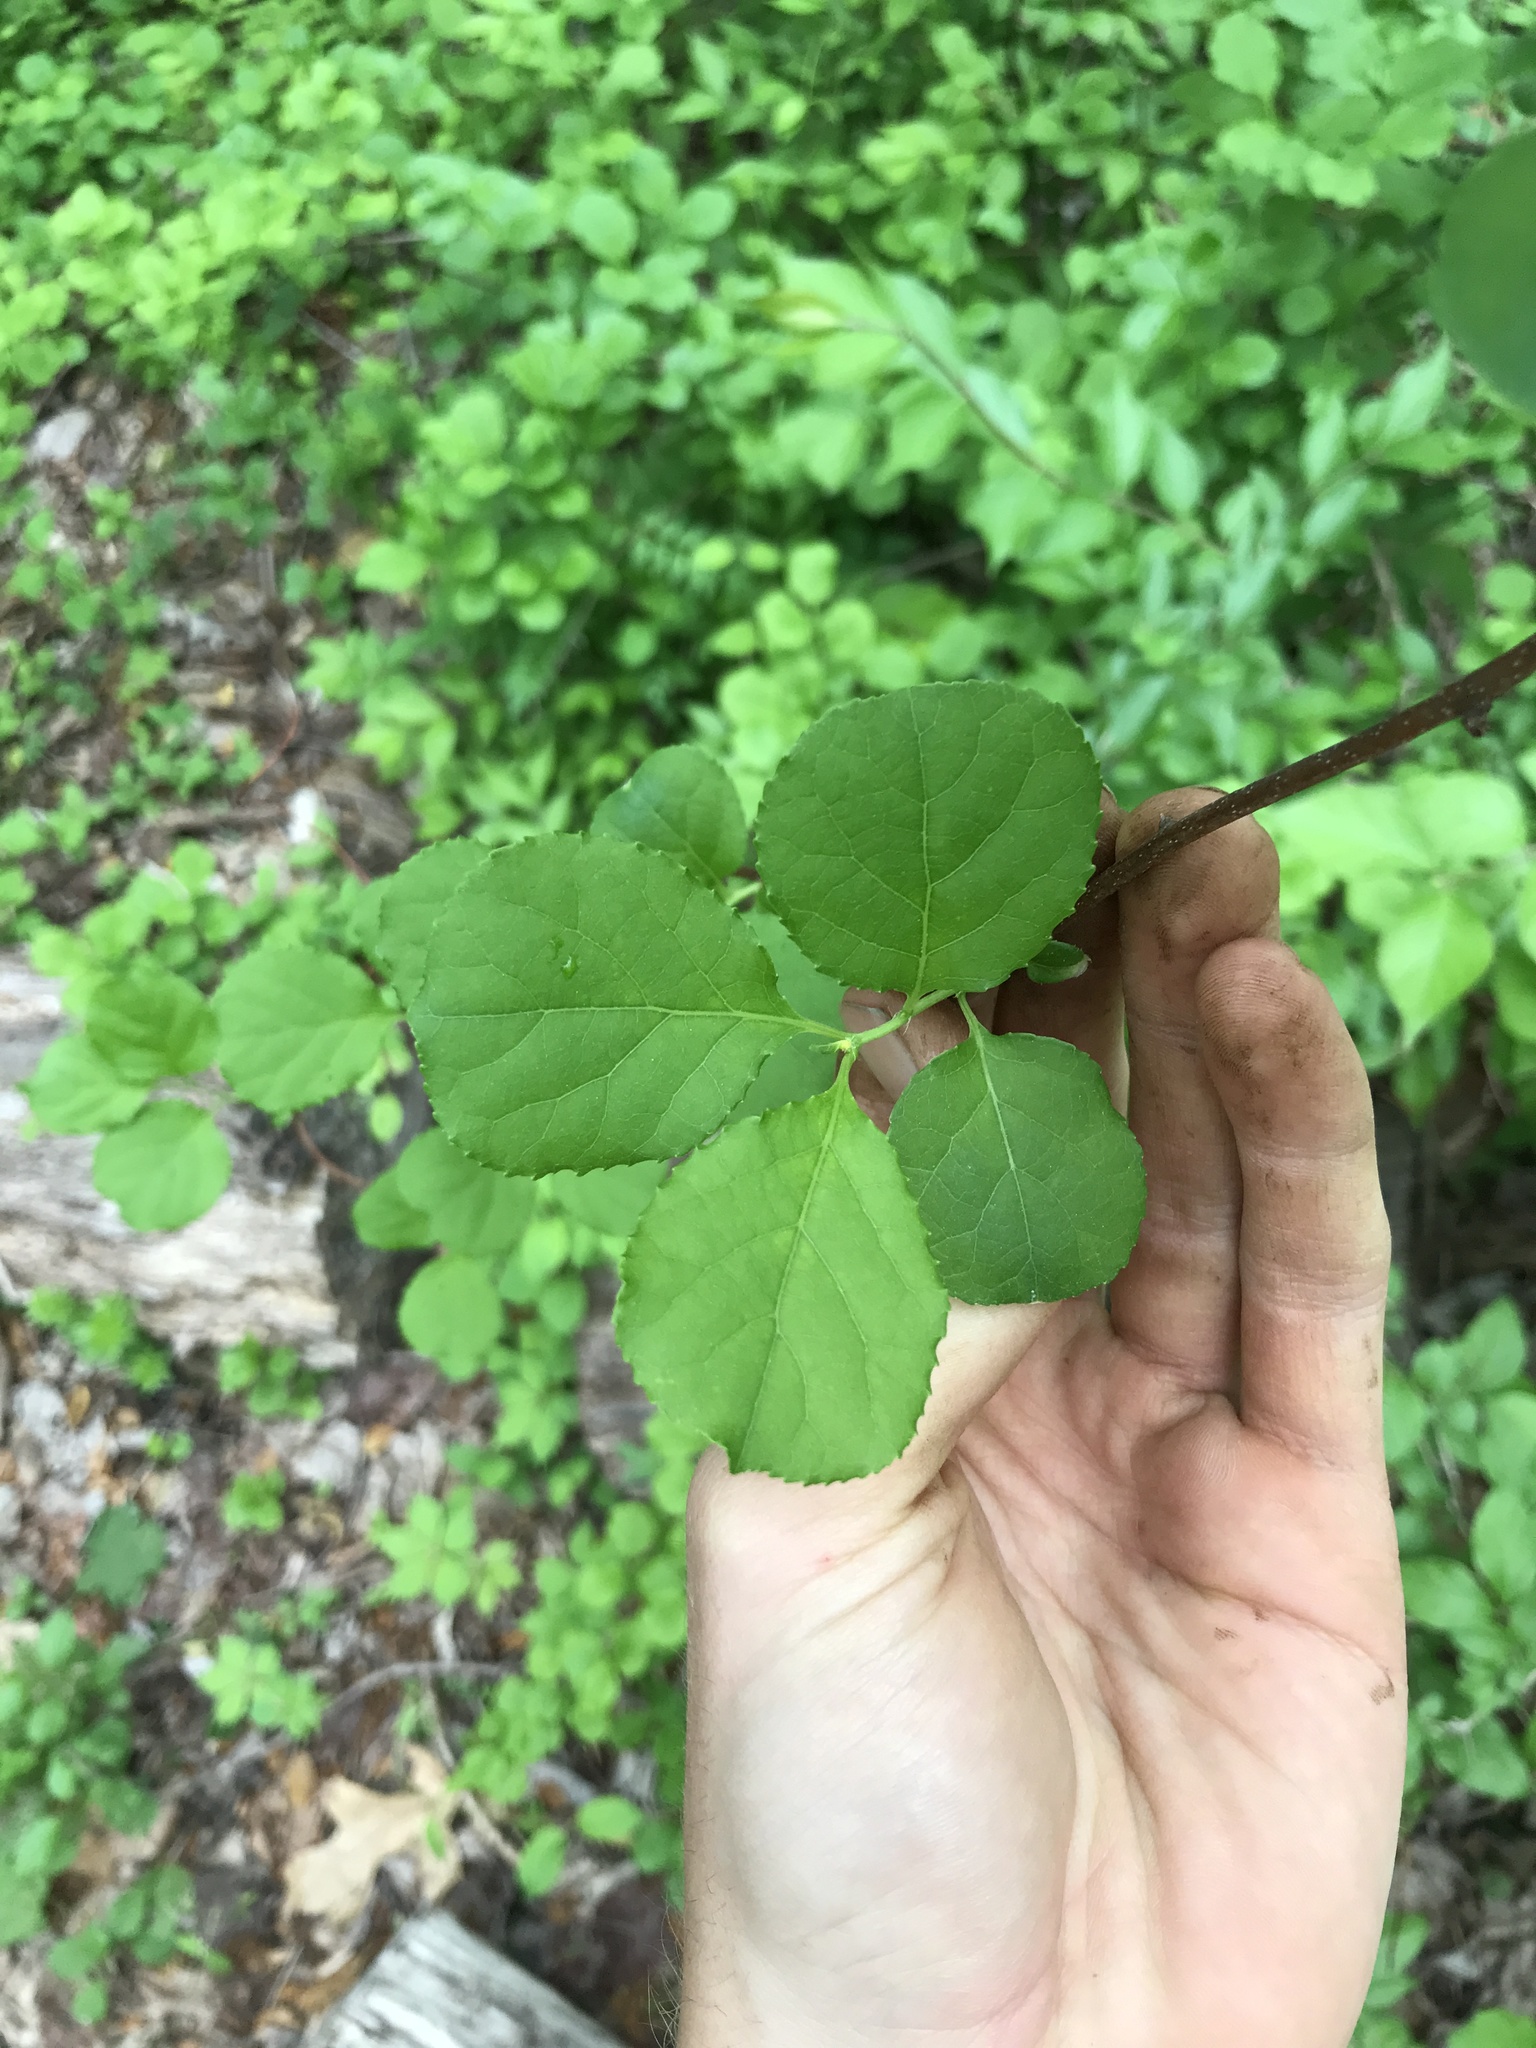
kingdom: Plantae
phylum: Tracheophyta
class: Magnoliopsida
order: Celastrales
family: Celastraceae
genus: Celastrus
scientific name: Celastrus orbiculatus
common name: Oriental bittersweet
